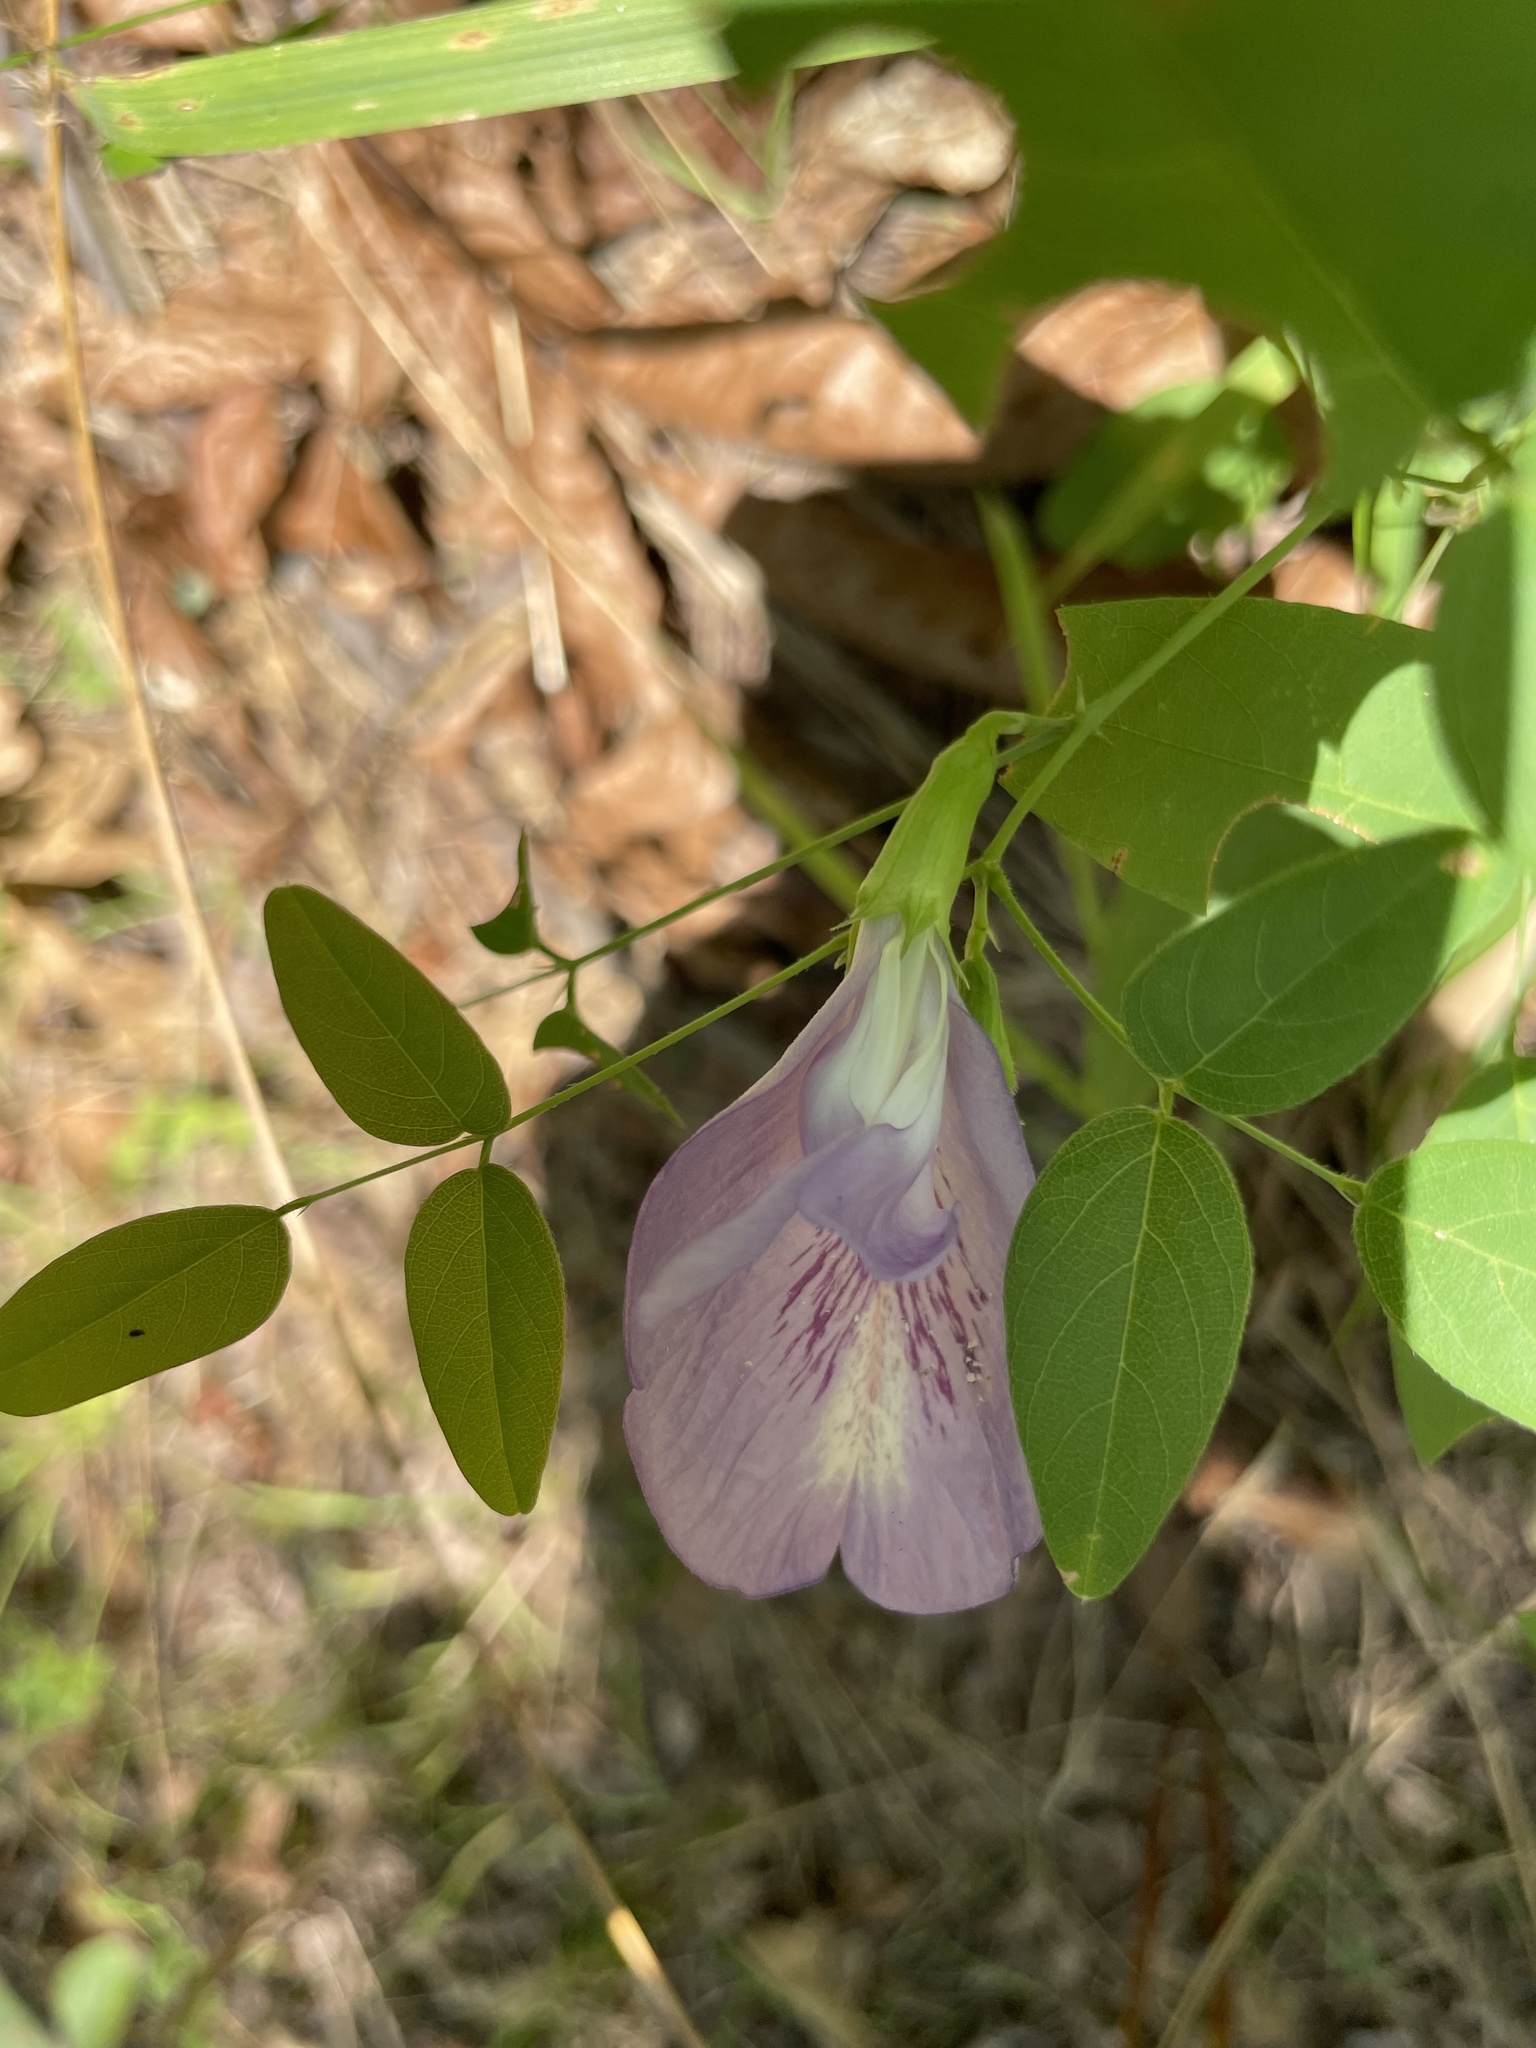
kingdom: Plantae
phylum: Tracheophyta
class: Magnoliopsida
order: Fabales
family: Fabaceae
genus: Clitoria
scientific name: Clitoria mariana
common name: Butterfly-pea
